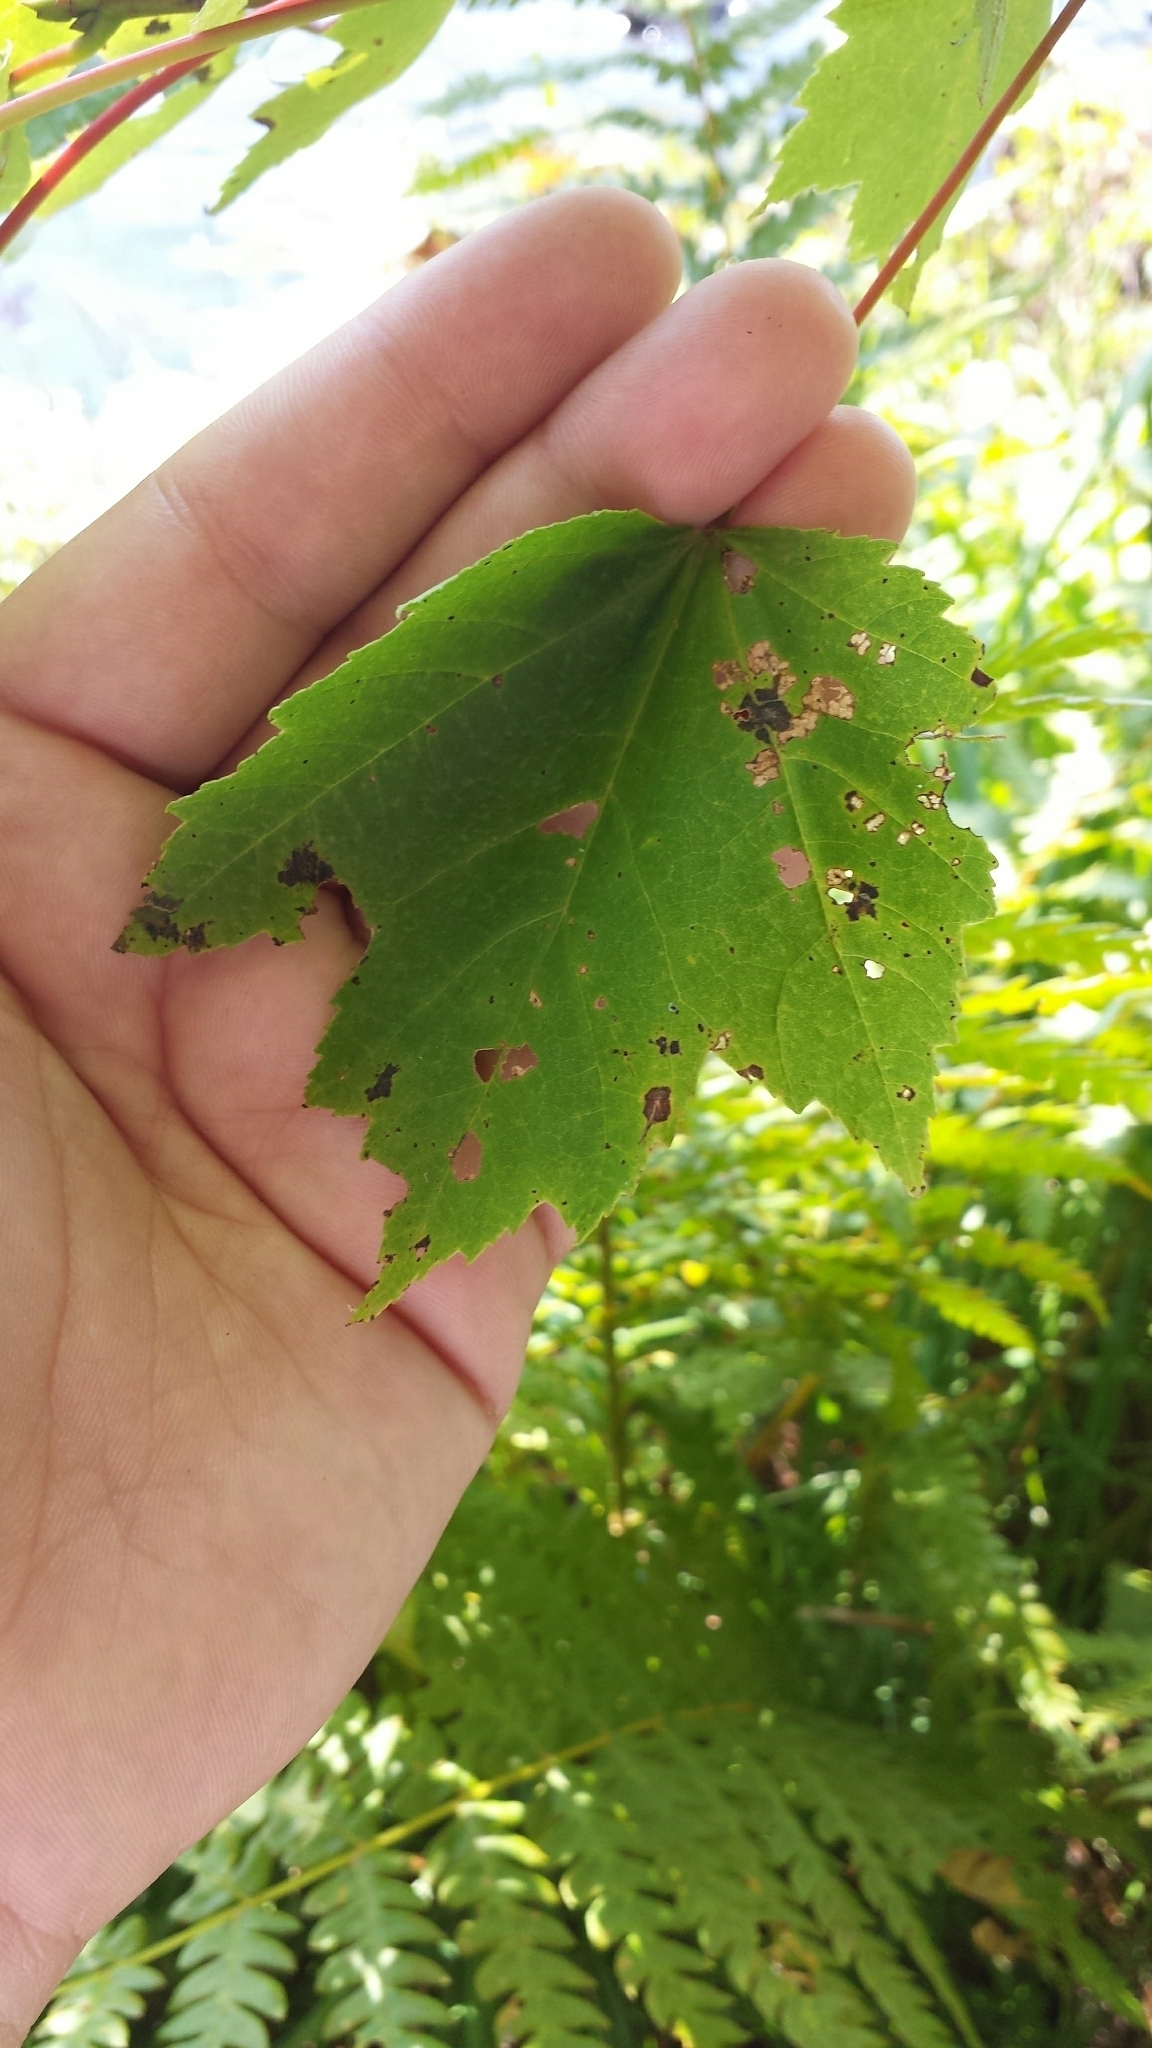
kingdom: Plantae
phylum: Tracheophyta
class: Magnoliopsida
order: Sapindales
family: Sapindaceae
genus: Acer
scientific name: Acer rubrum
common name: Red maple
